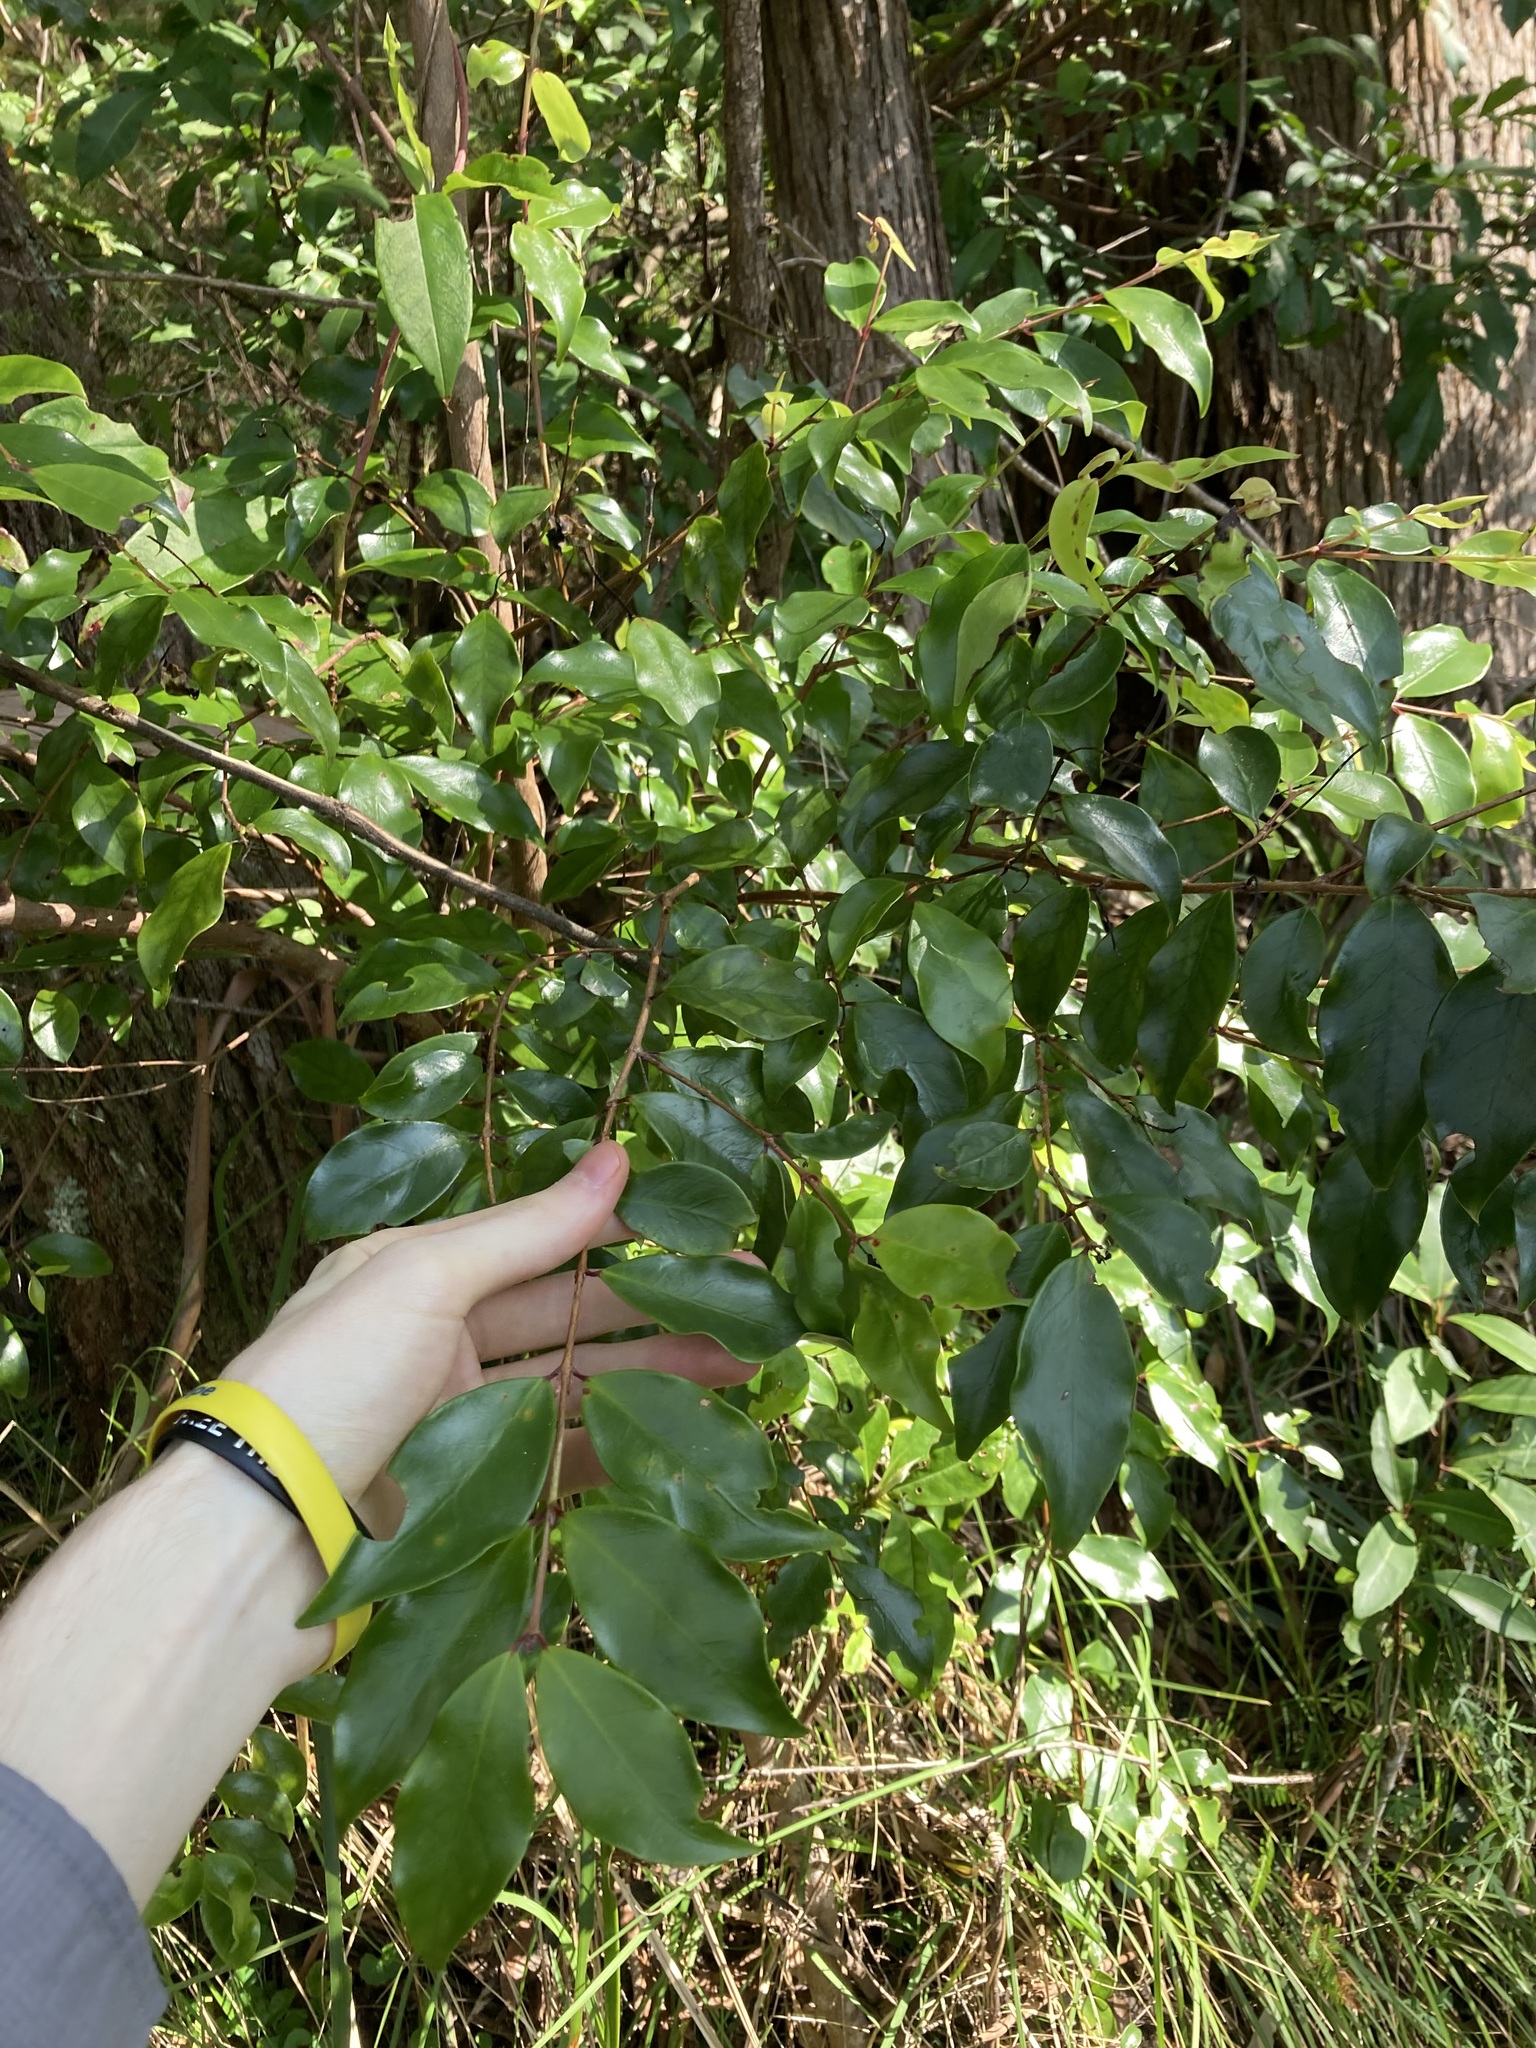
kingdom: Plantae
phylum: Tracheophyta
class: Magnoliopsida
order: Myrtales
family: Myrtaceae
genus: Archirhodomyrtus
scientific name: Archirhodomyrtus beckleri
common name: Beckler's myrtle
